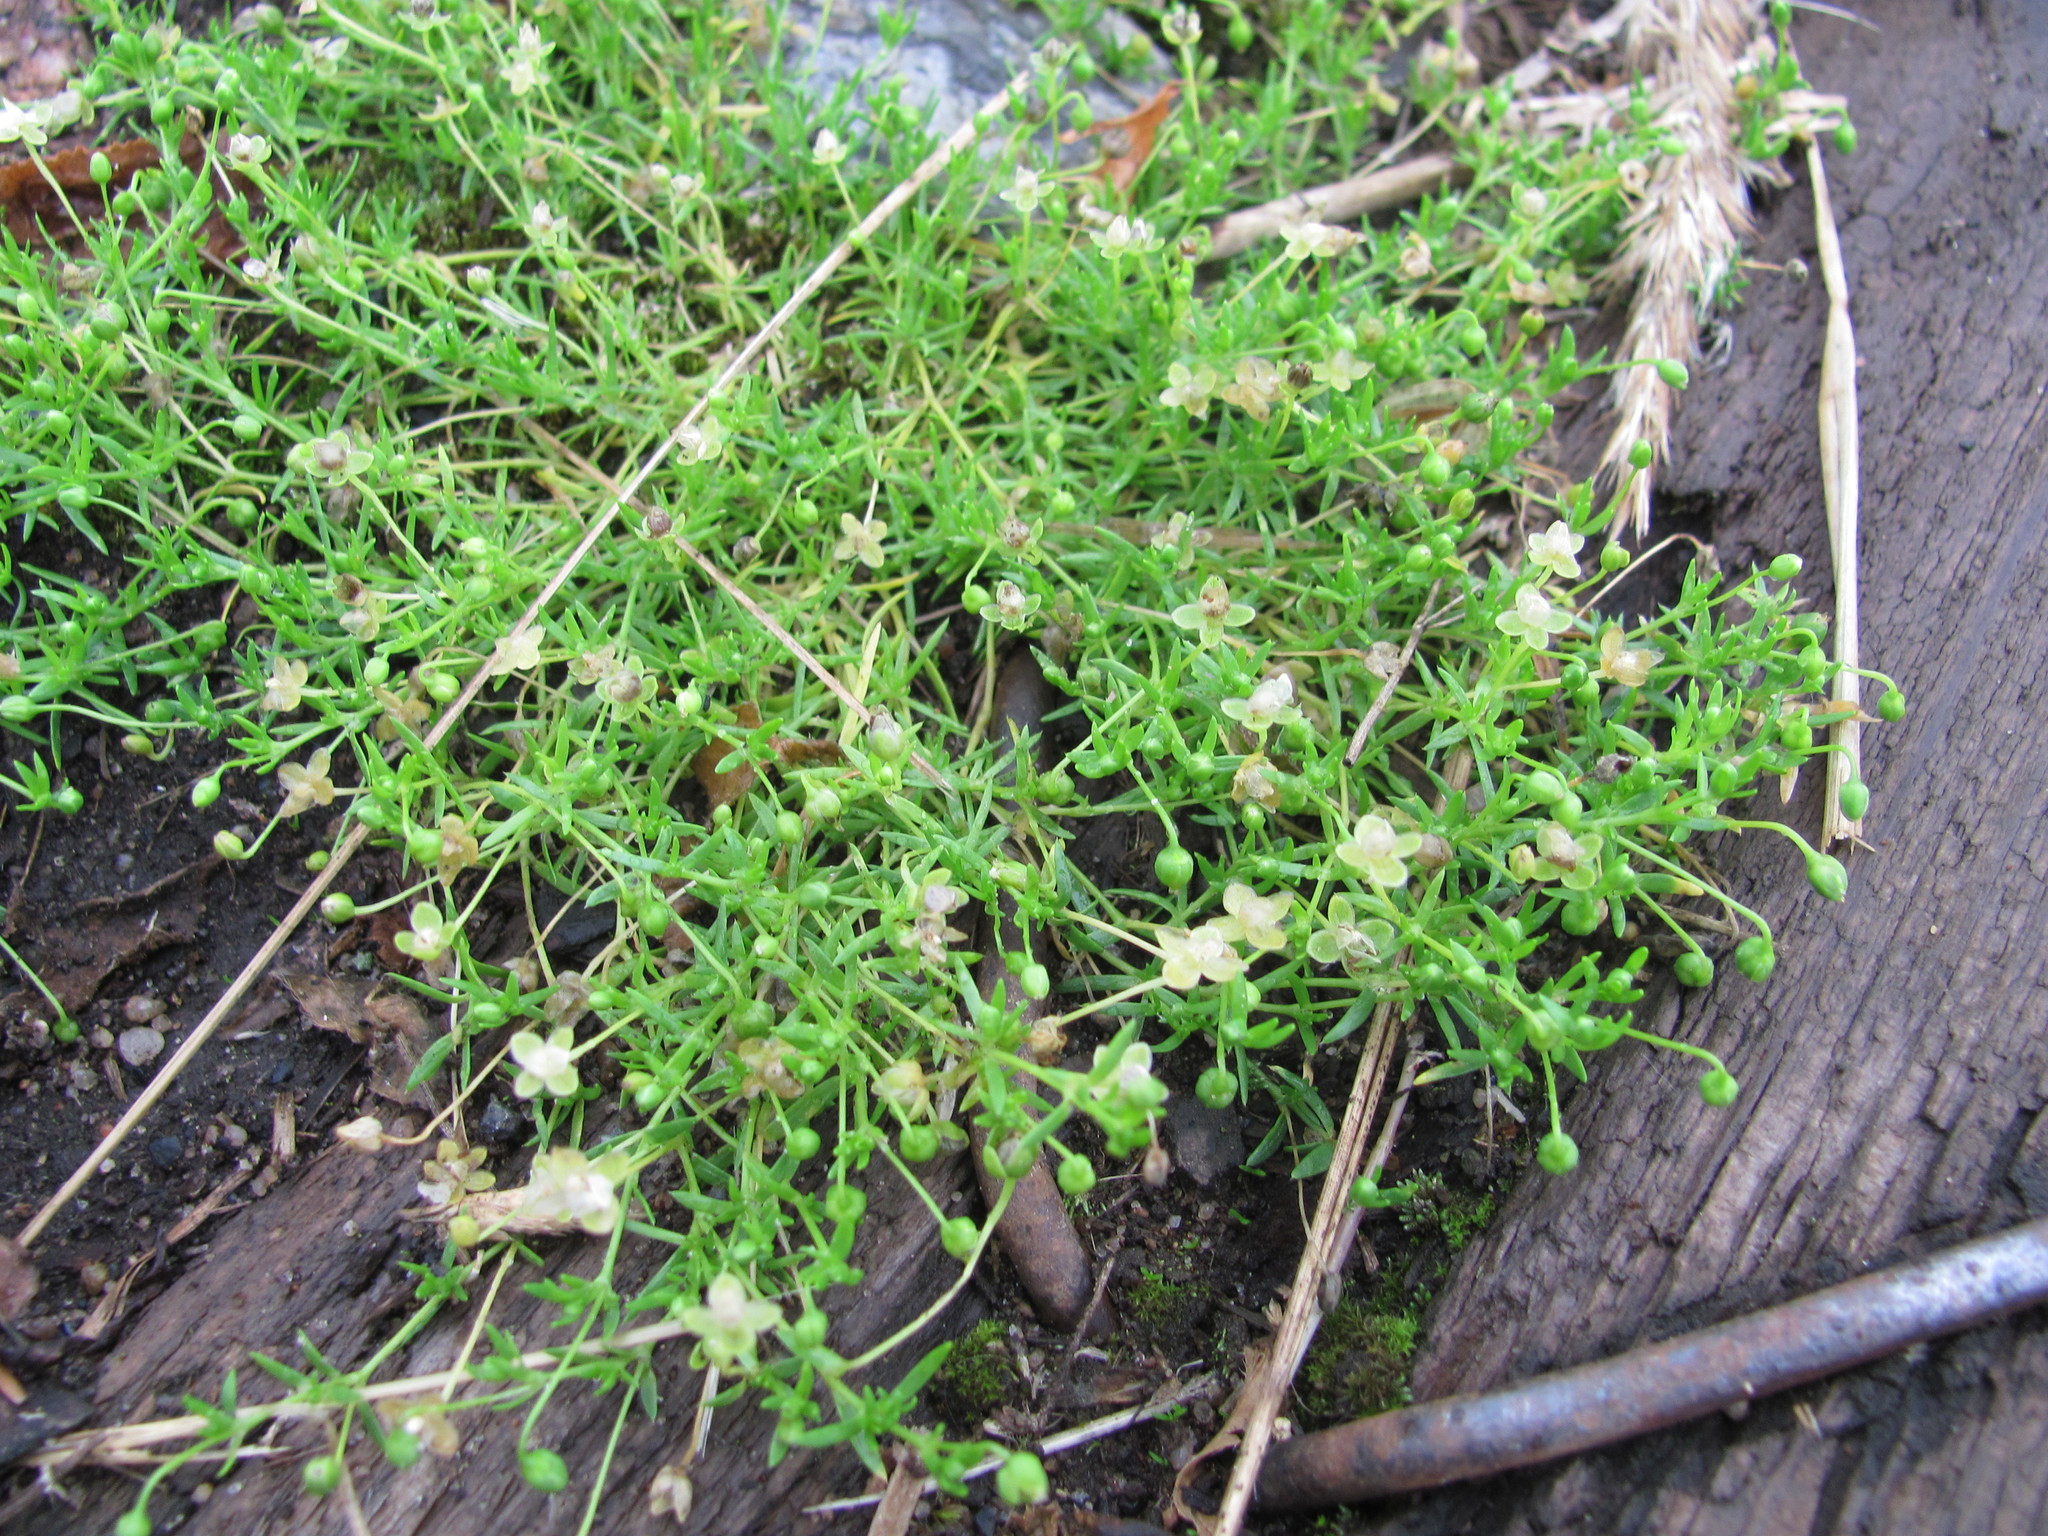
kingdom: Plantae
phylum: Tracheophyta
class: Magnoliopsida
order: Caryophyllales
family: Caryophyllaceae
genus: Sagina
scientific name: Sagina procumbens
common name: Procumbent pearlwort
